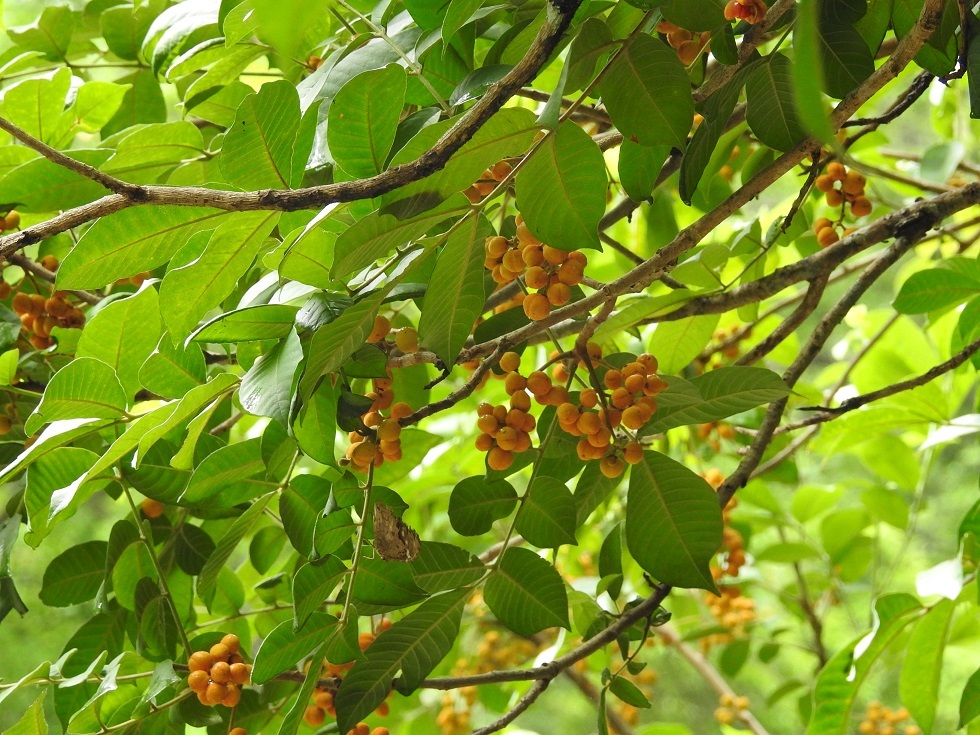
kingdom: Plantae
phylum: Tracheophyta
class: Magnoliopsida
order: Sapindales
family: Meliaceae
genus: Trichilia
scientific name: Trichilia martiana
